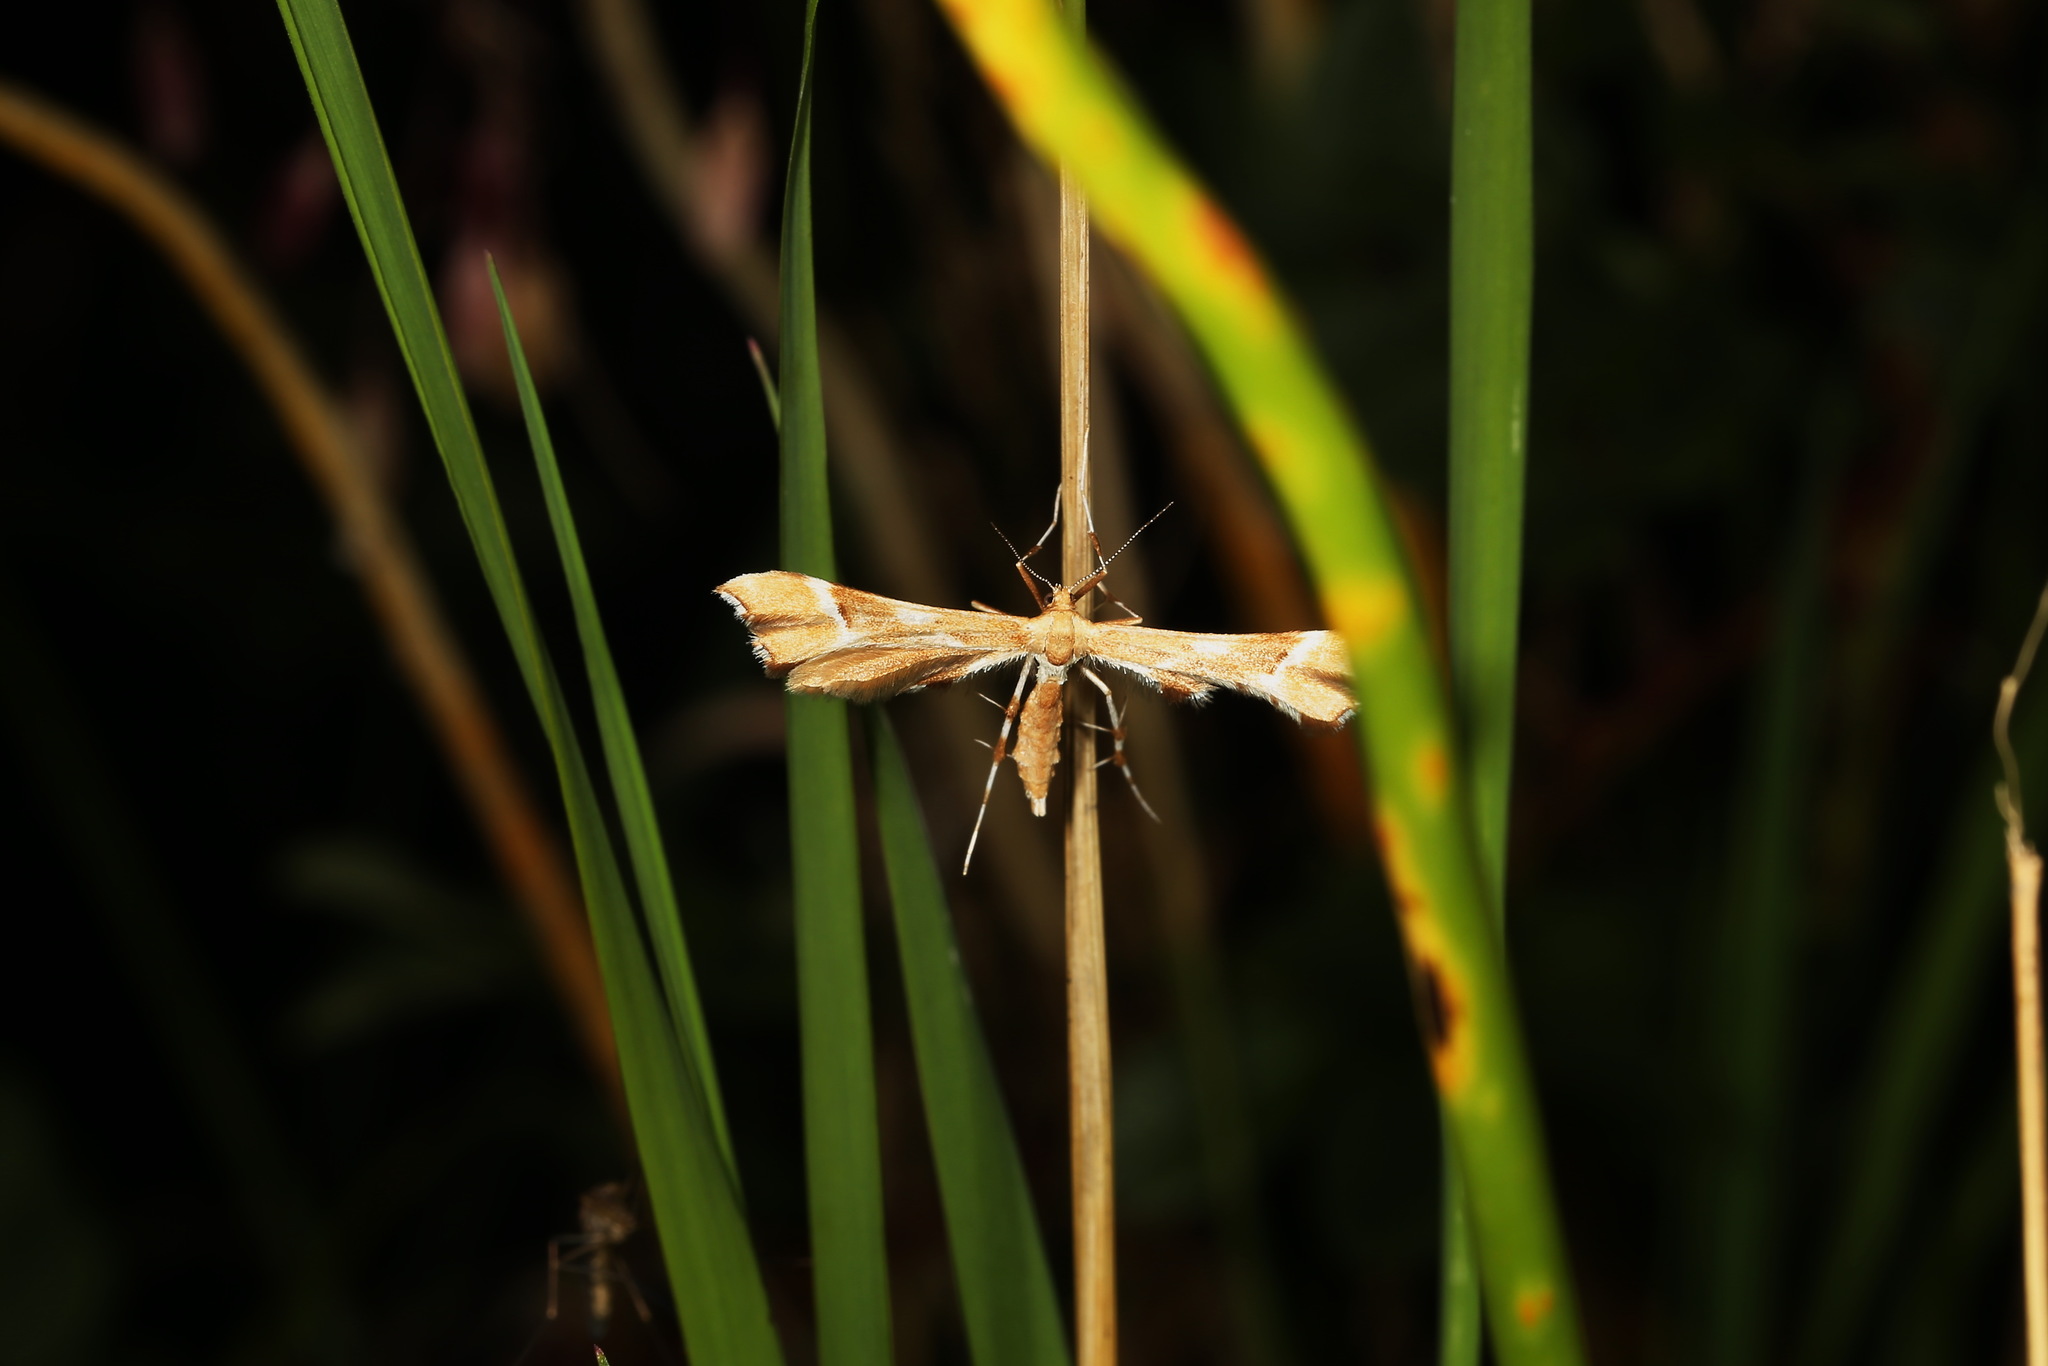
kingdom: Animalia
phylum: Arthropoda
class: Insecta
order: Lepidoptera
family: Pterophoridae
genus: Cnaemidophorus
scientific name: Cnaemidophorus rhododactyla
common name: Rose plume
